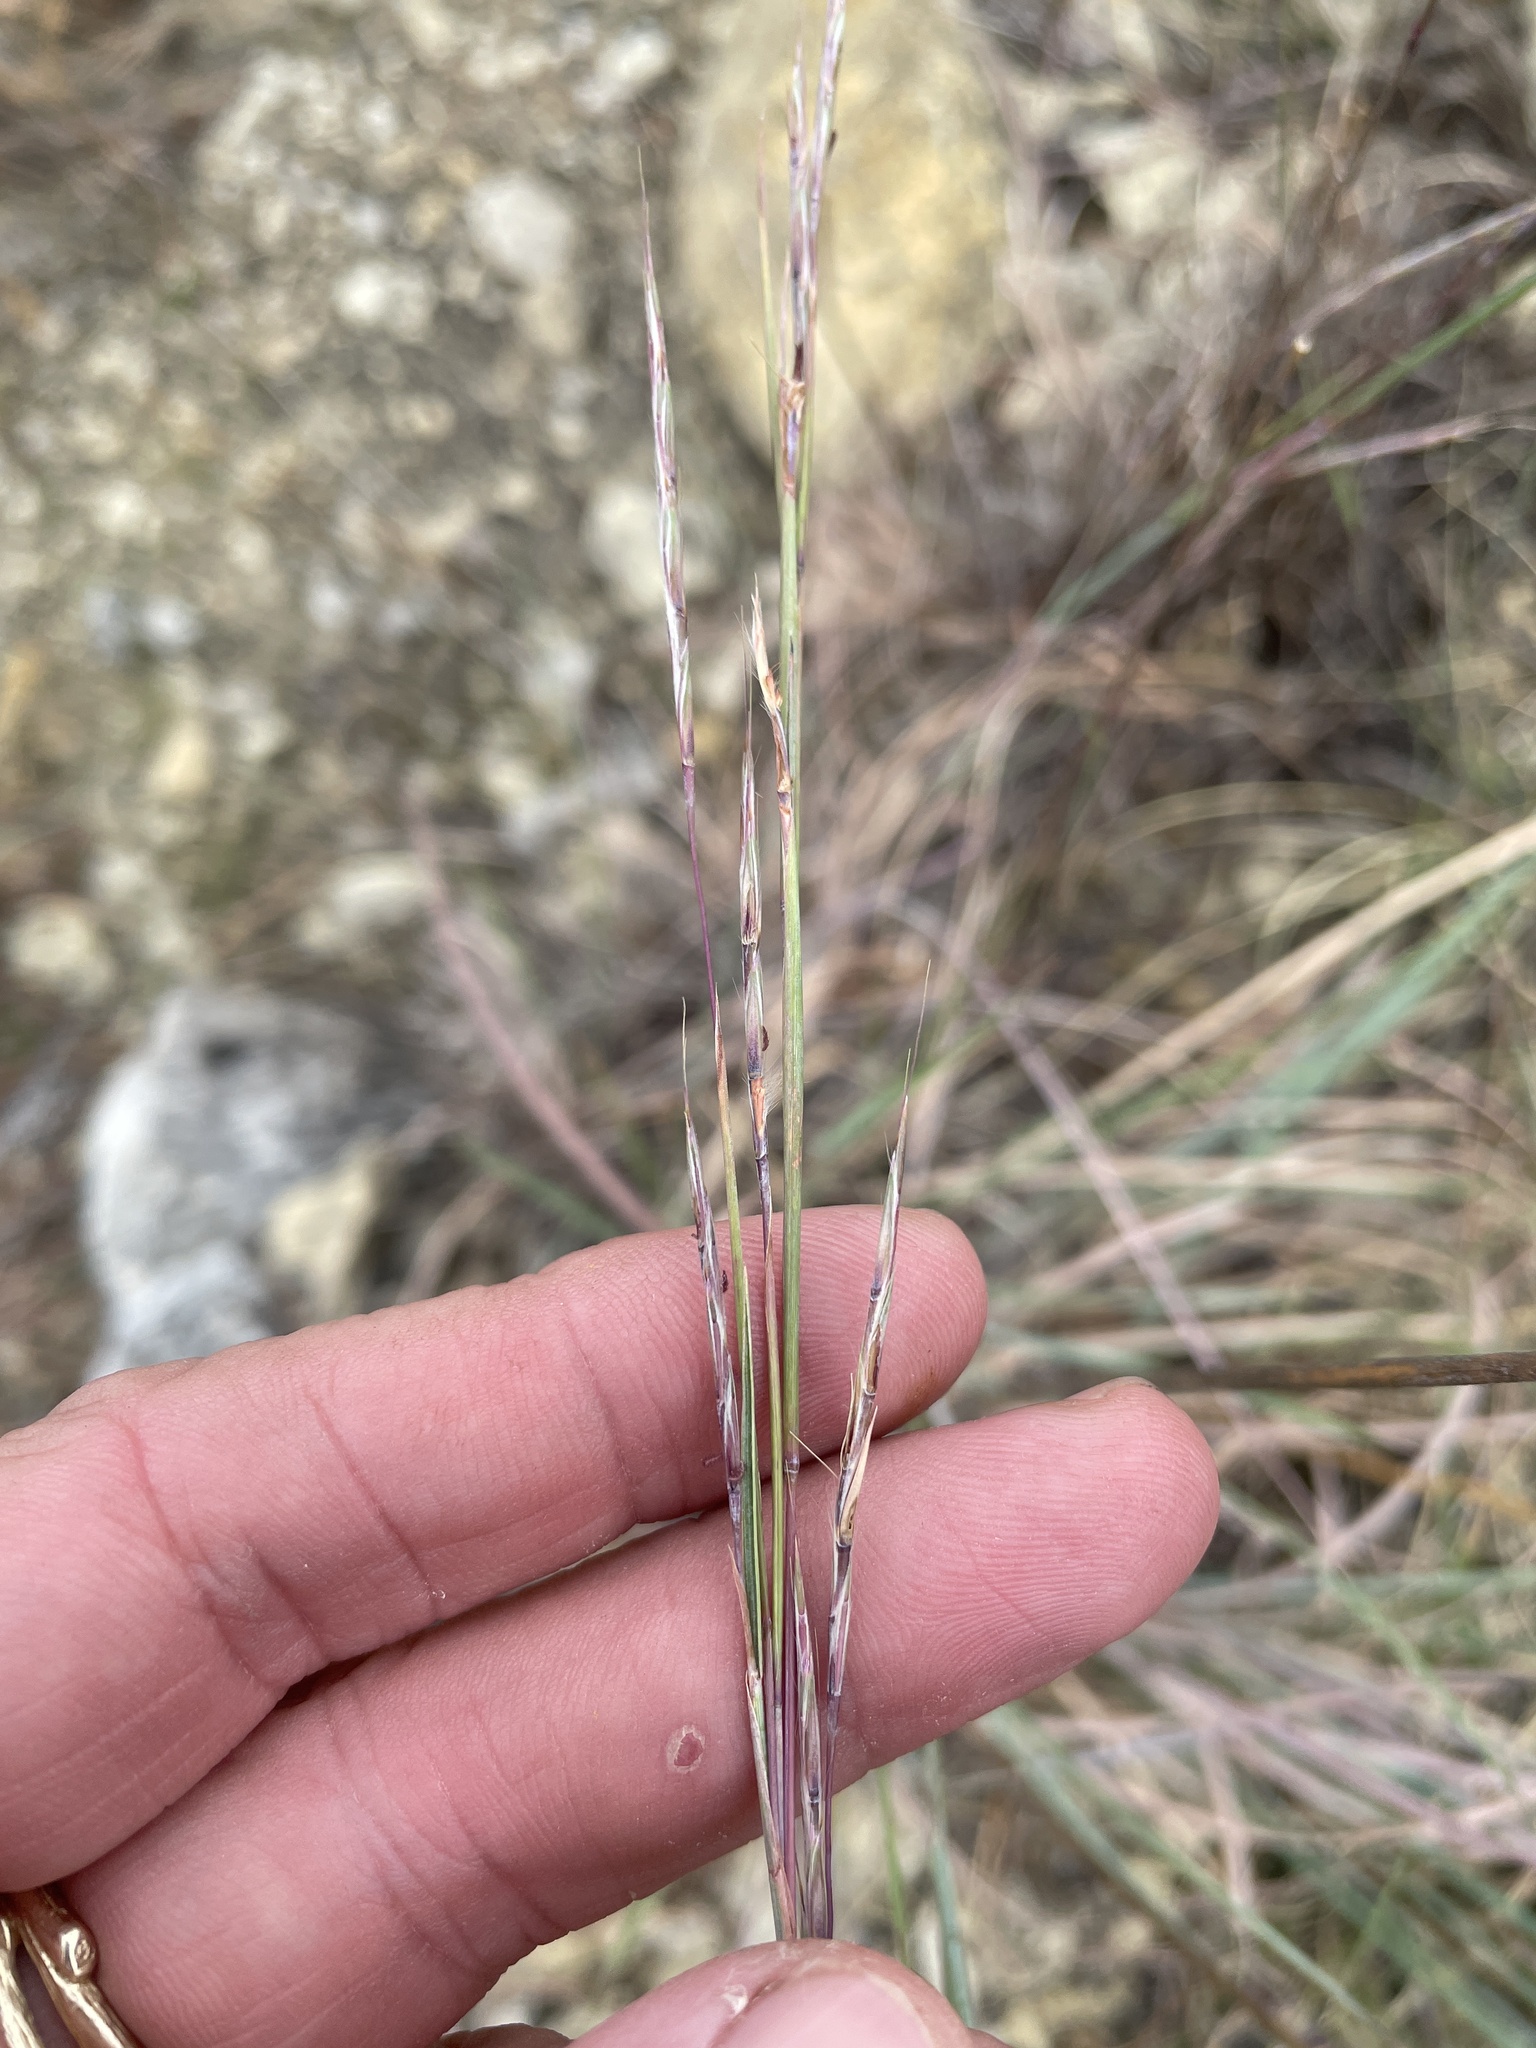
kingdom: Plantae
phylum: Tracheophyta
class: Liliopsida
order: Poales
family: Poaceae
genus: Schizachyrium
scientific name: Schizachyrium scoparium
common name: Little bluestem
